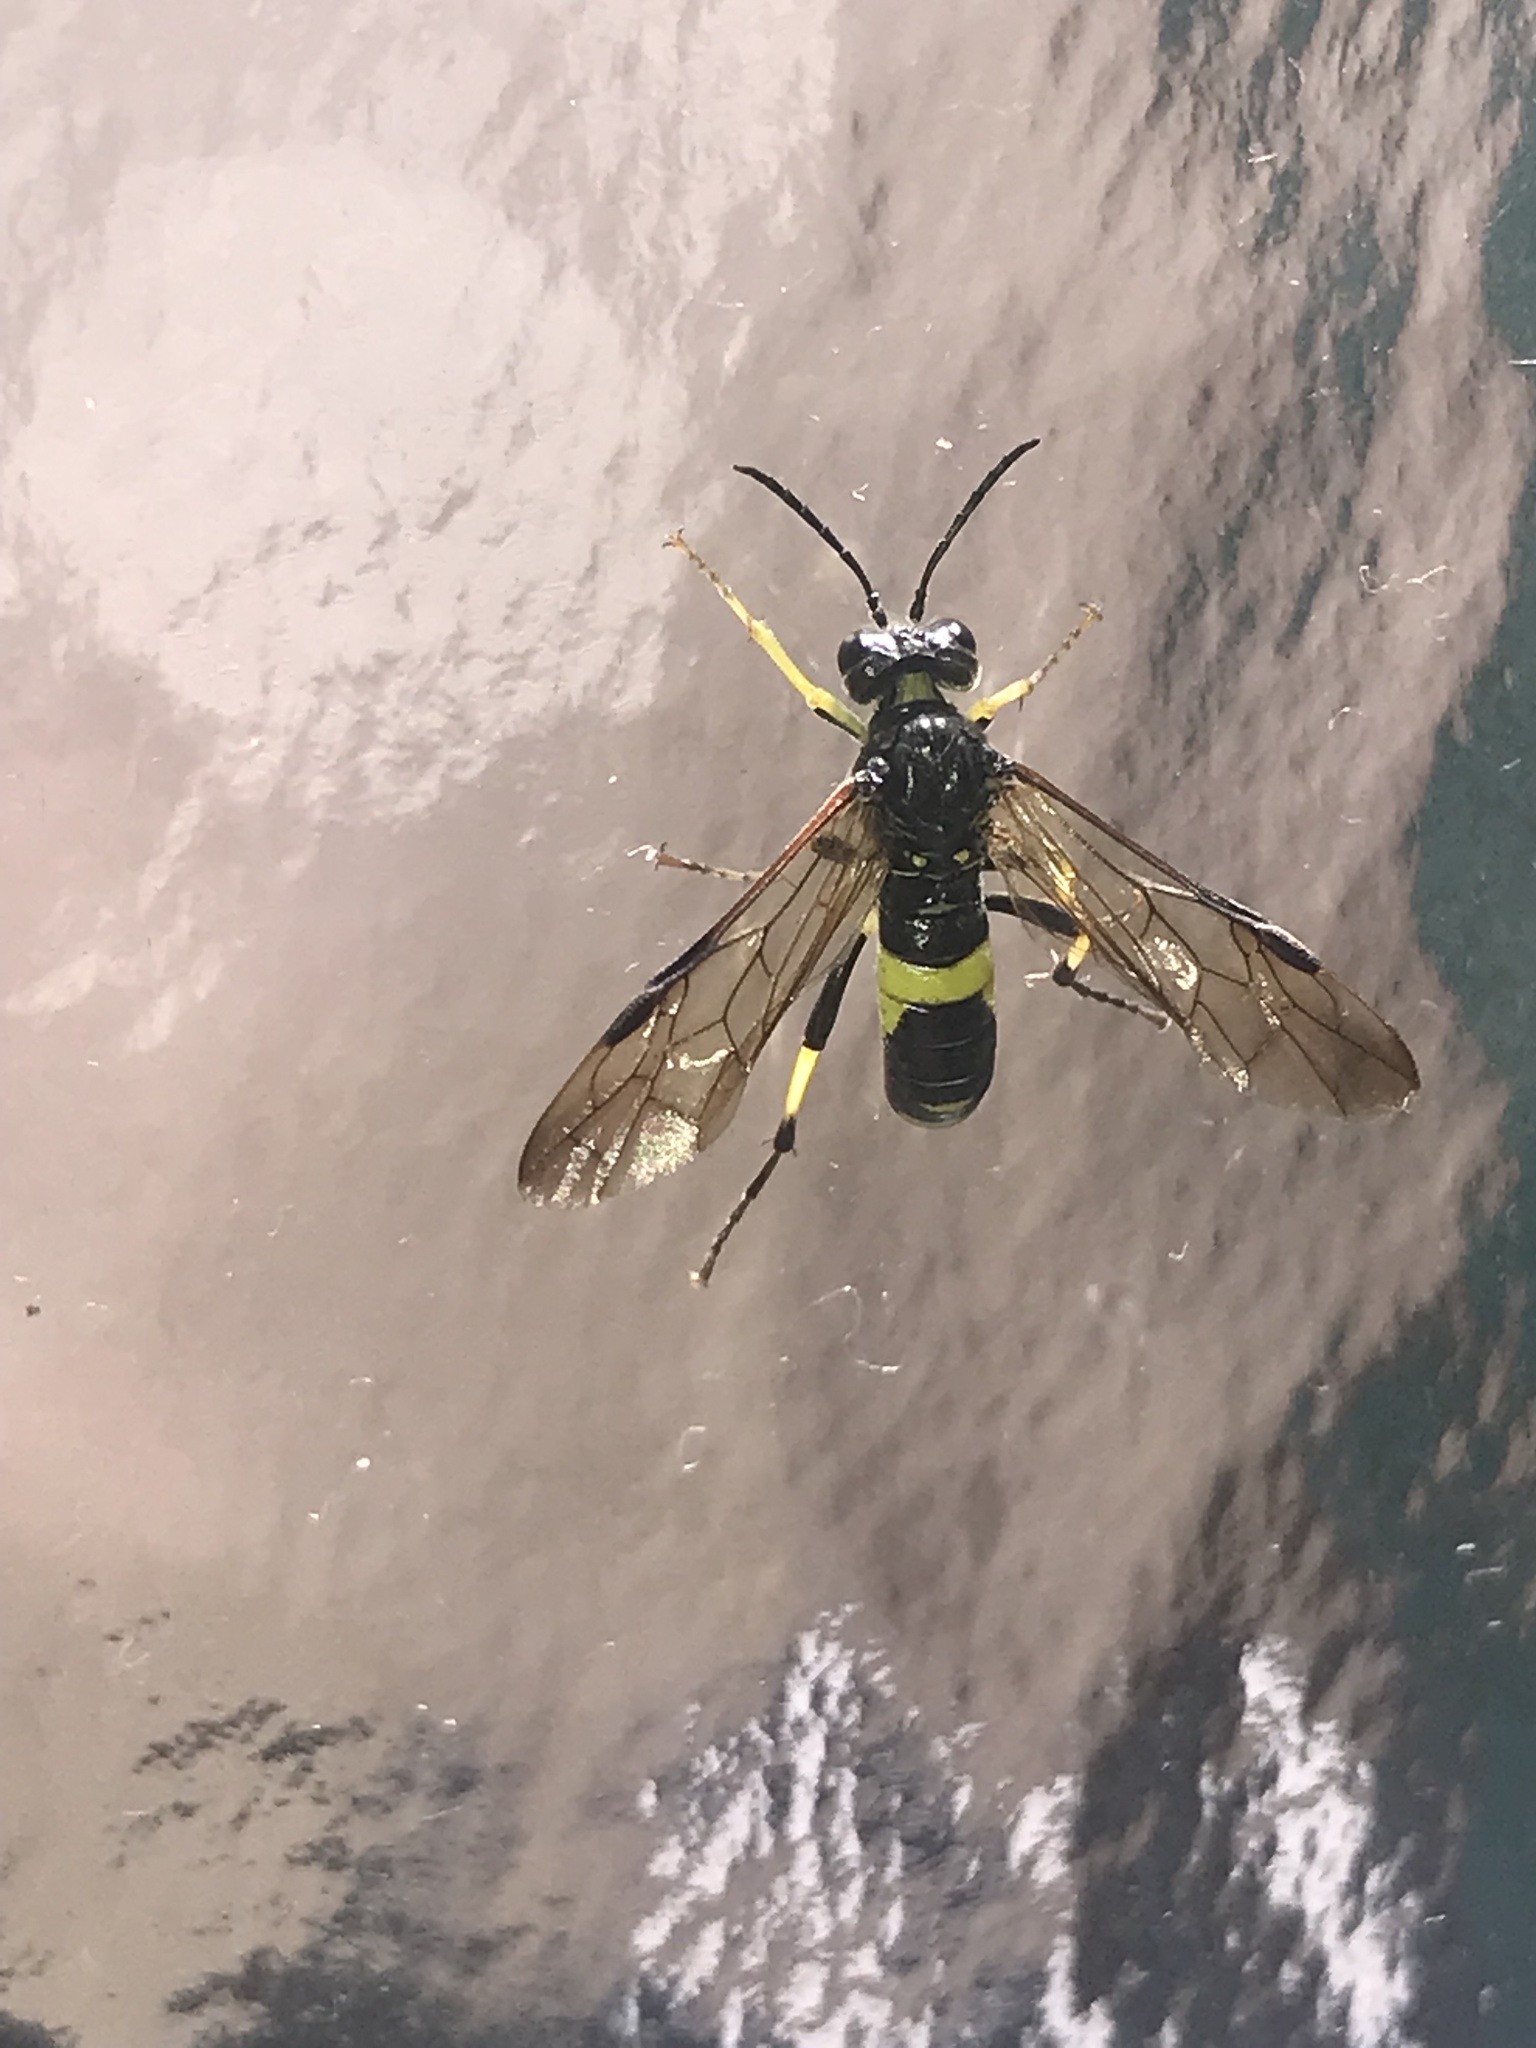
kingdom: Animalia
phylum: Arthropoda
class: Insecta
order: Hymenoptera
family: Tenthredinidae
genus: Tenthredo
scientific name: Tenthredo temula
